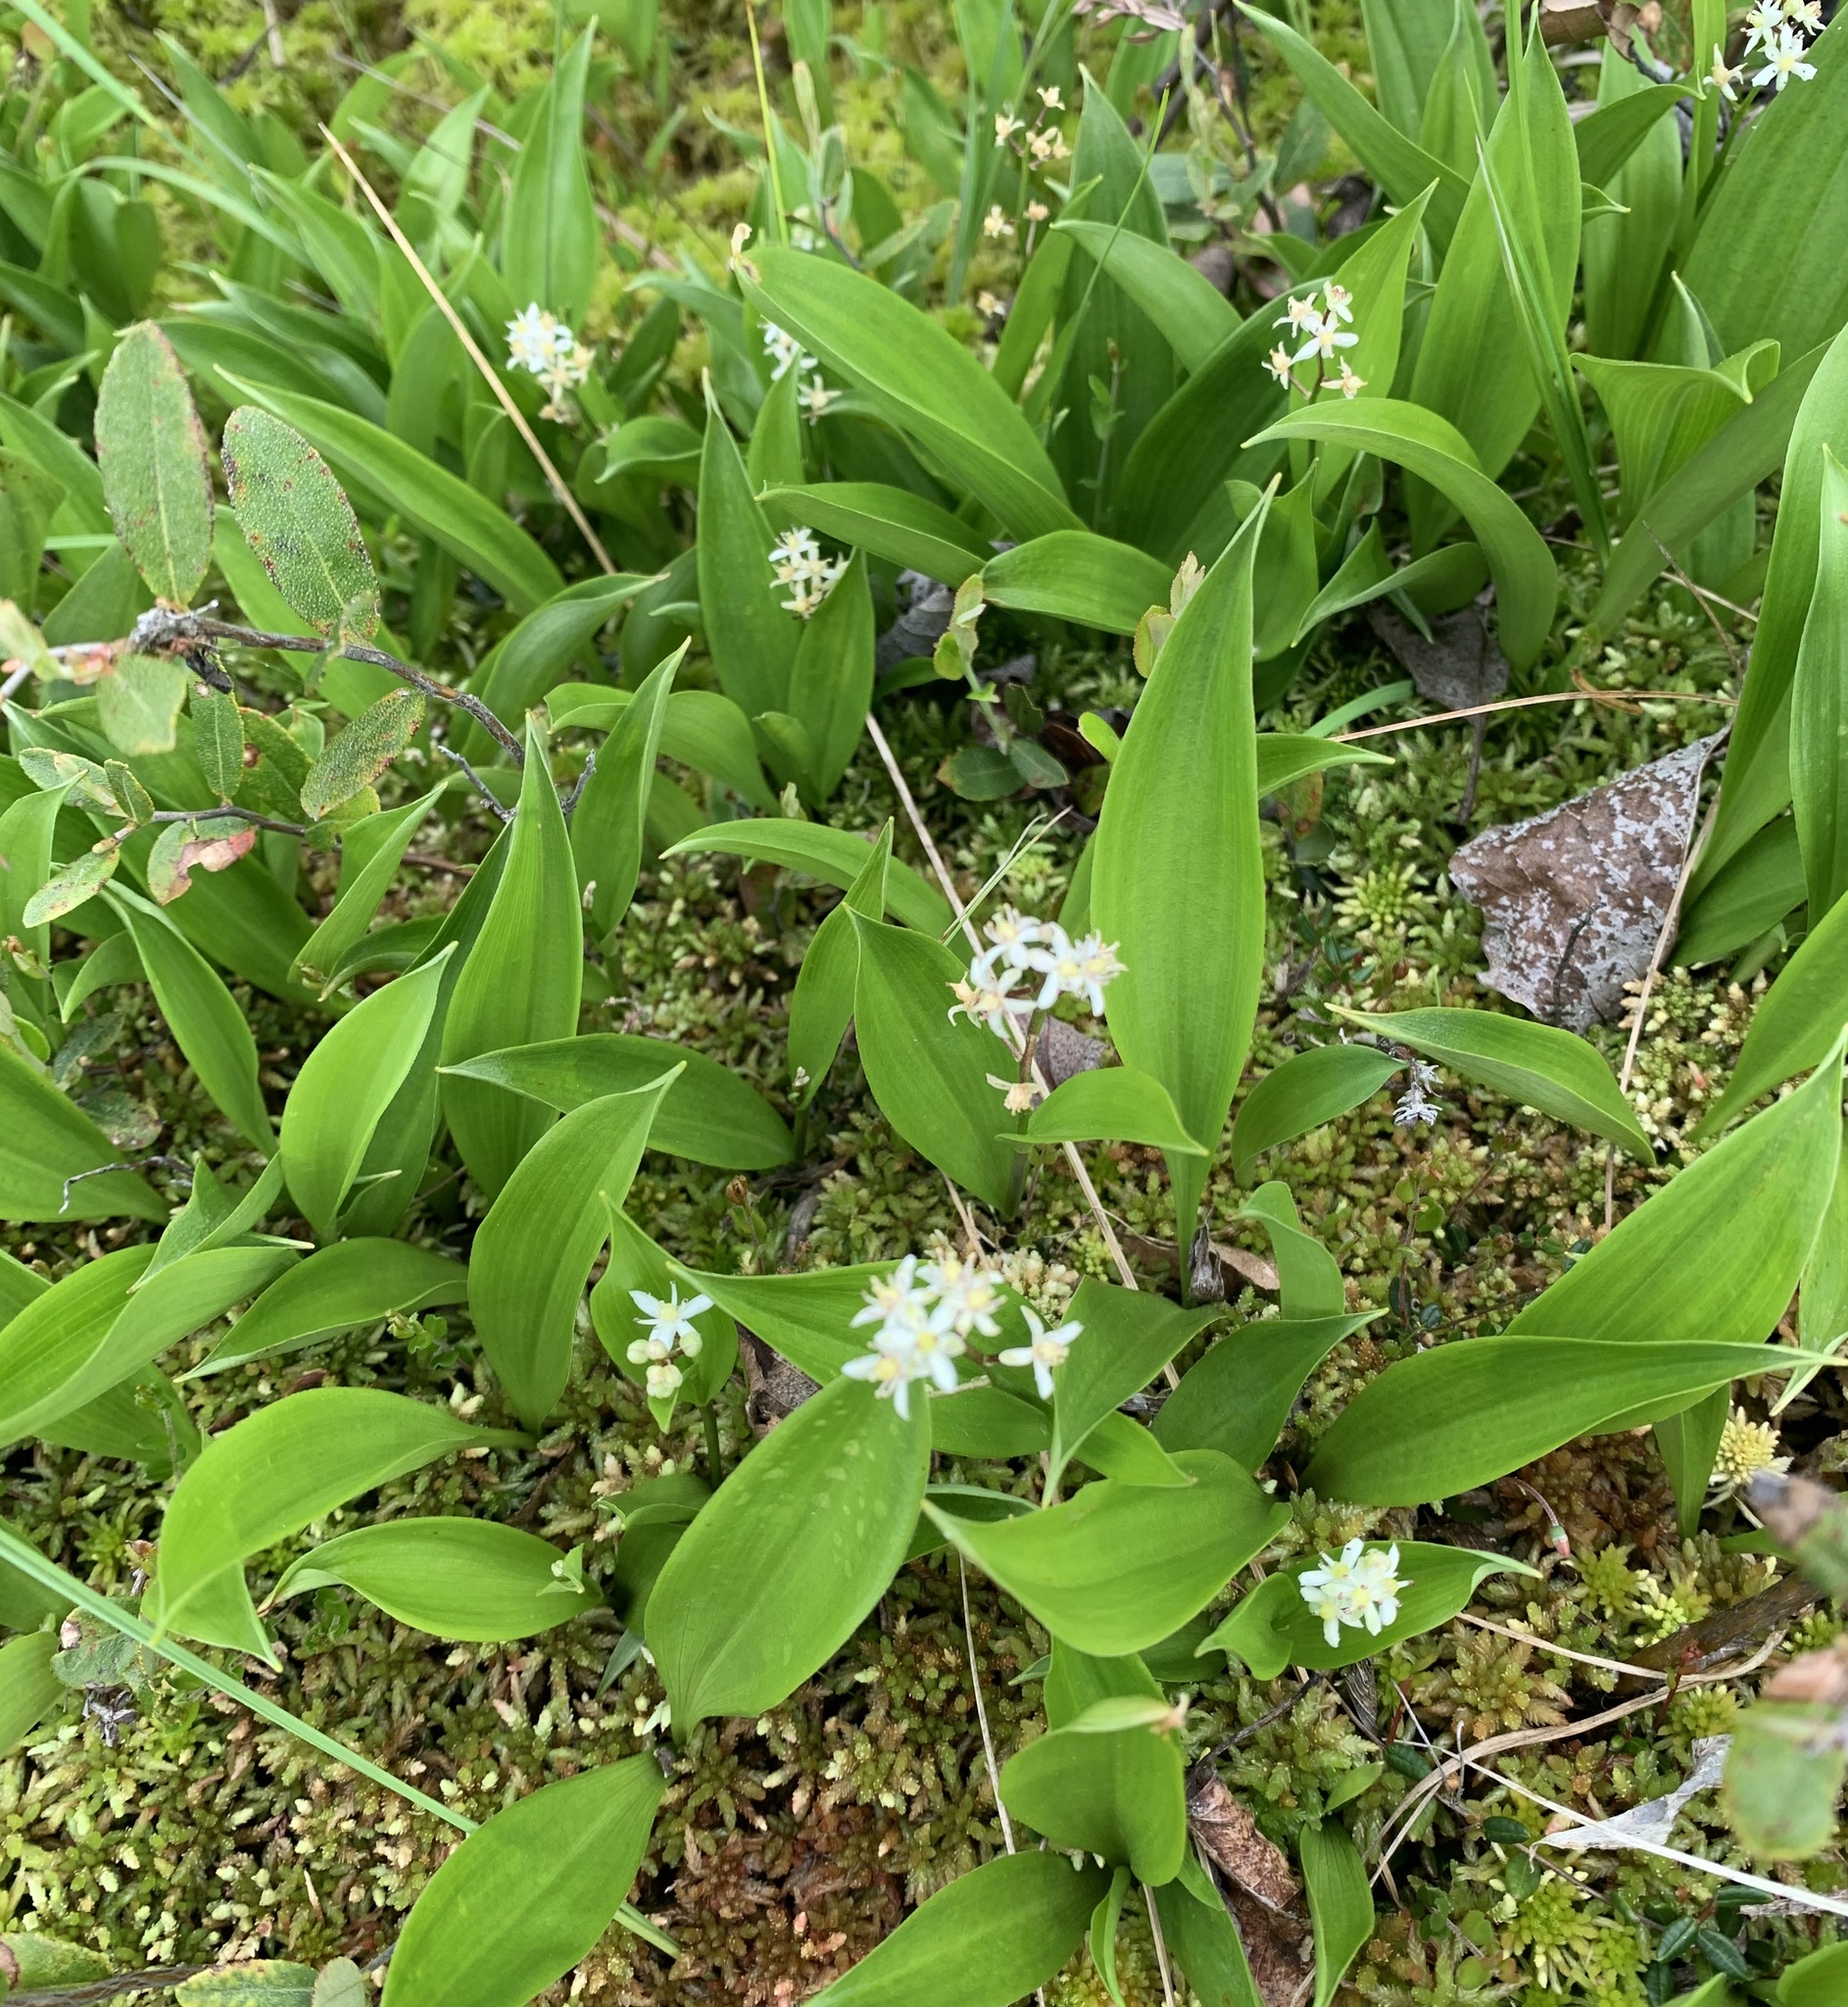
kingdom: Plantae
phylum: Tracheophyta
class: Liliopsida
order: Asparagales
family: Asparagaceae
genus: Maianthemum
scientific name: Maianthemum trifolium
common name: Swamp false solomon's seal
